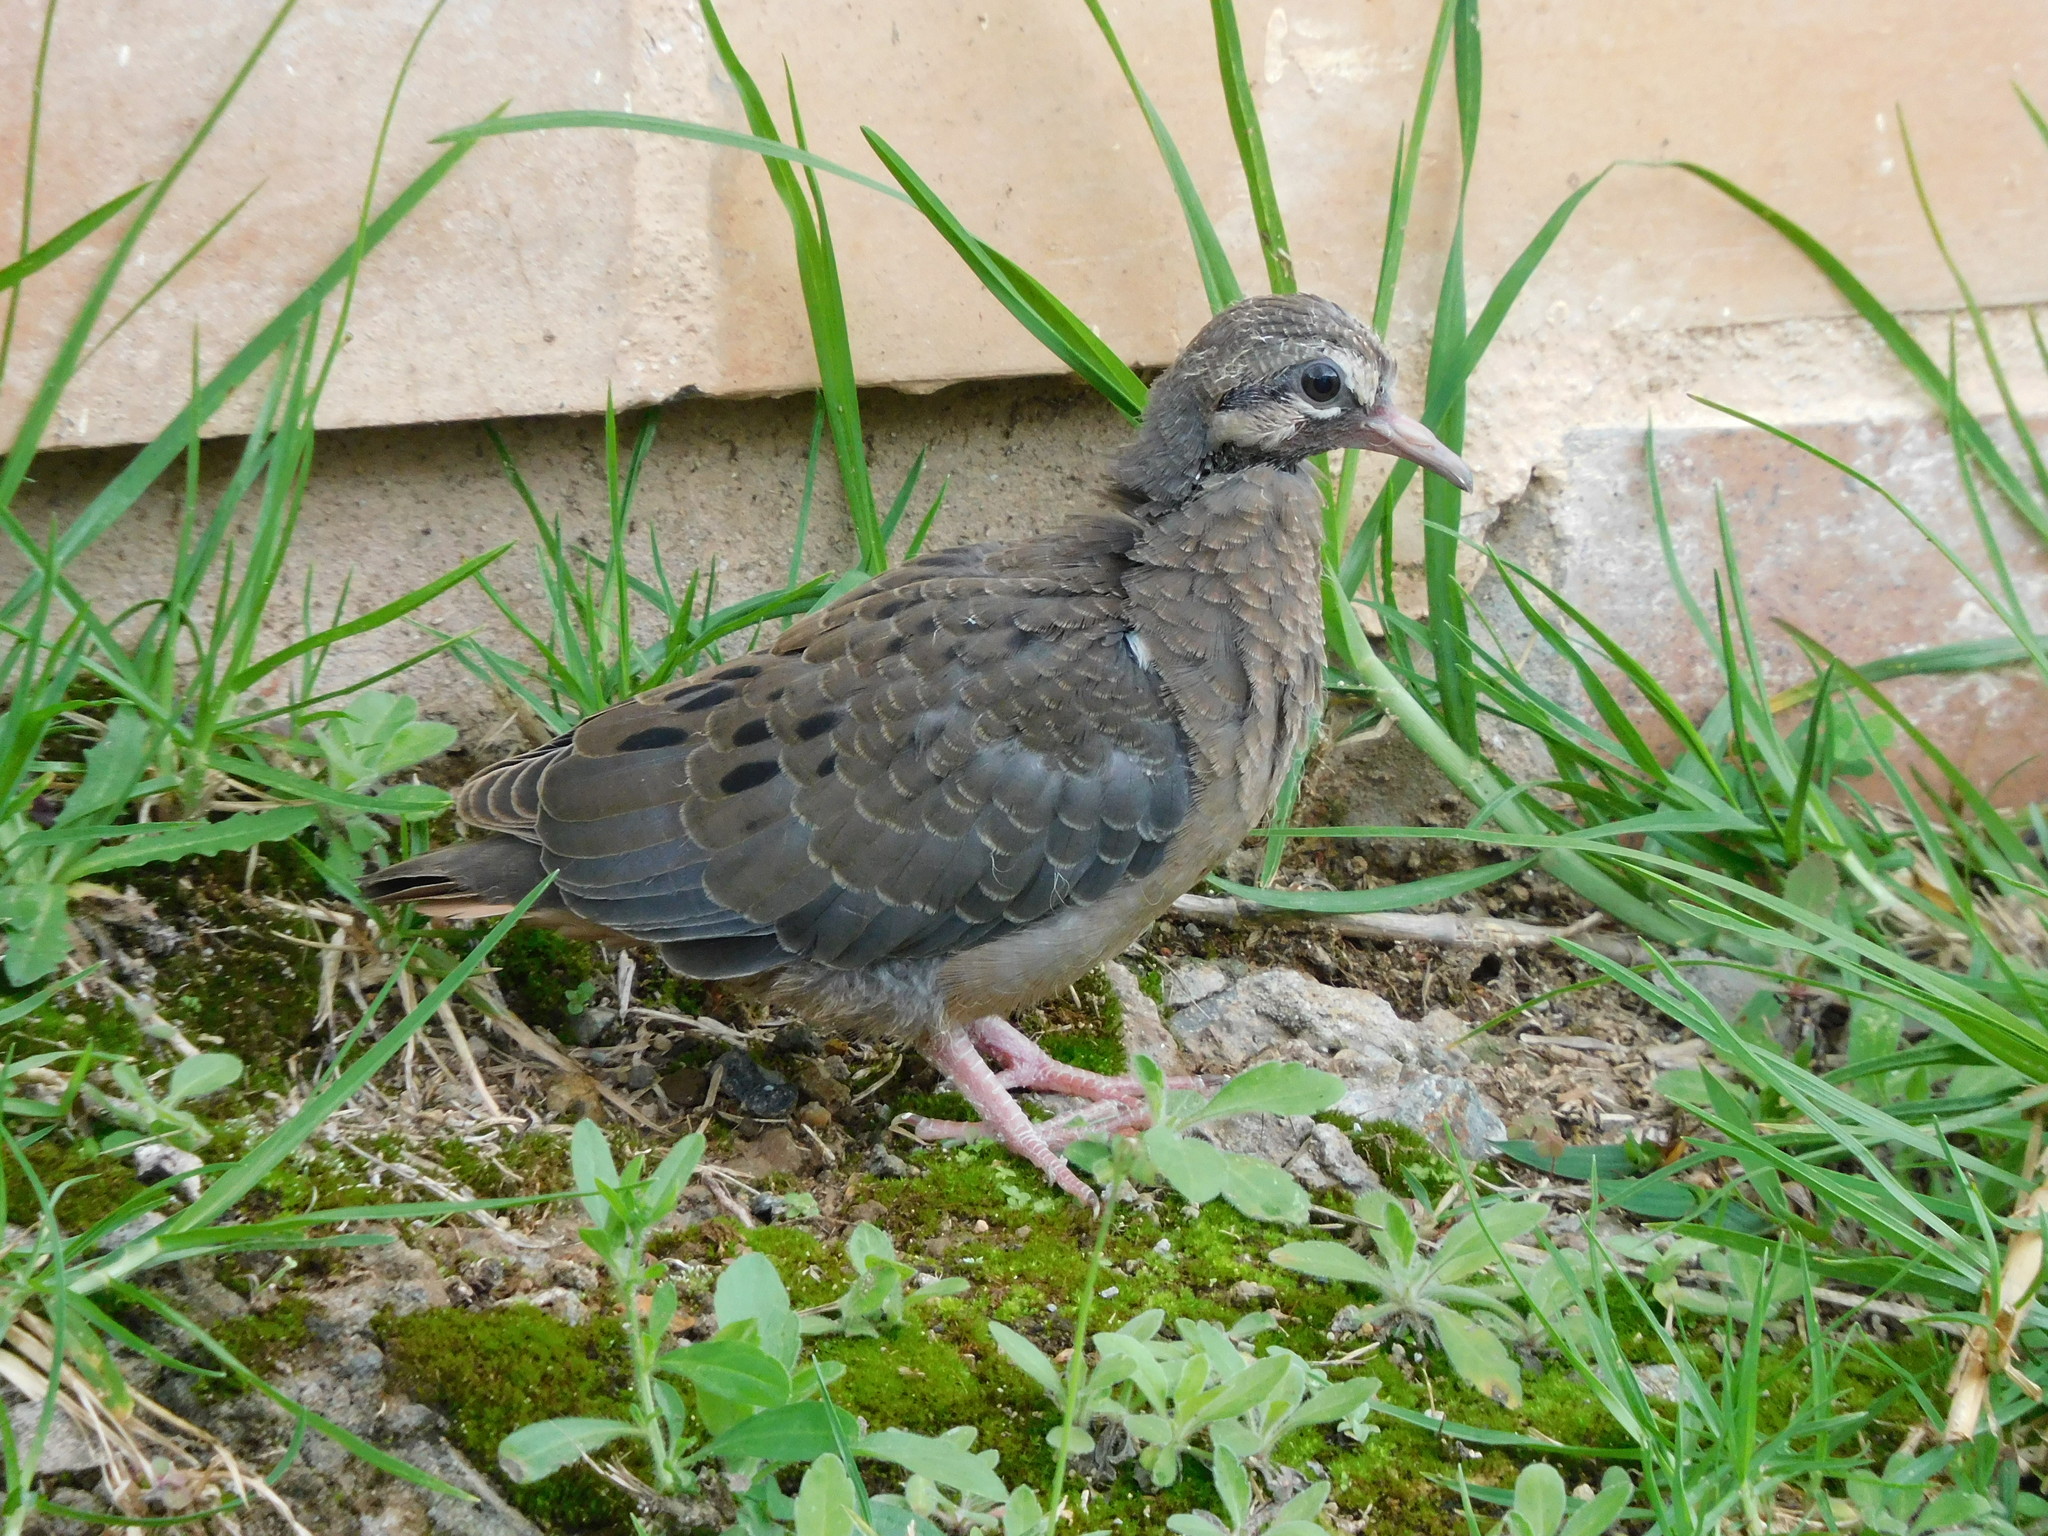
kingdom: Animalia
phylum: Chordata
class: Aves
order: Columbiformes
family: Columbidae
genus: Zenaida
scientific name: Zenaida auriculata
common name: Eared dove
